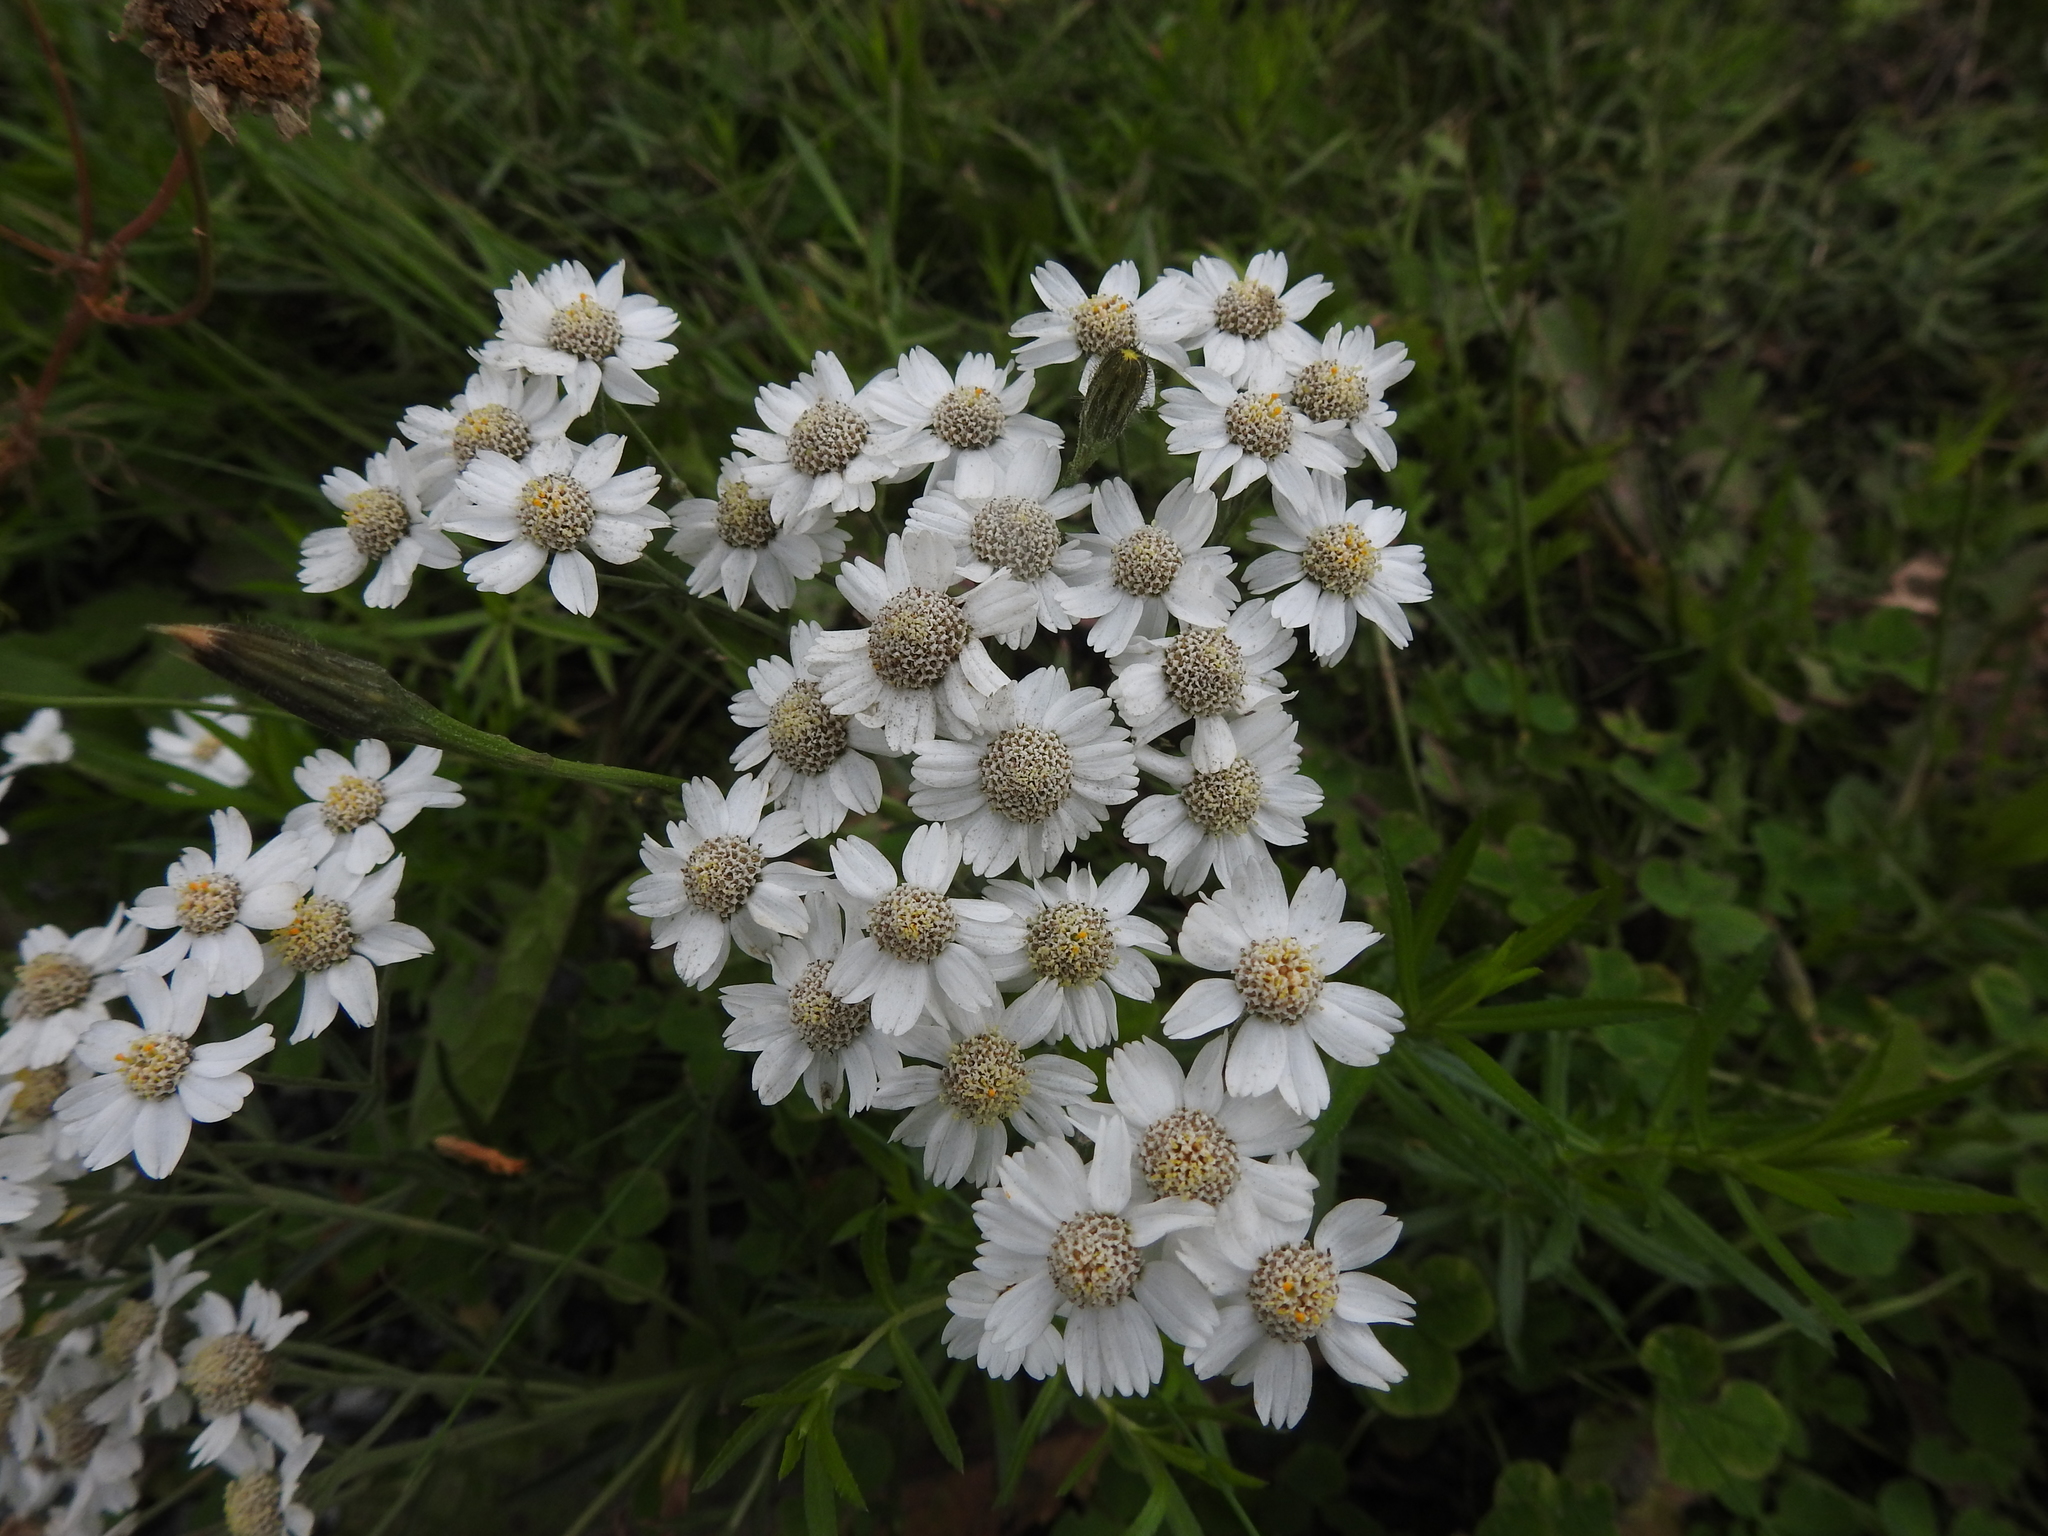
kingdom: Plantae
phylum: Tracheophyta
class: Magnoliopsida
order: Asterales
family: Asteraceae
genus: Achillea
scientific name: Achillea ptarmica
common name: Sneezeweed
